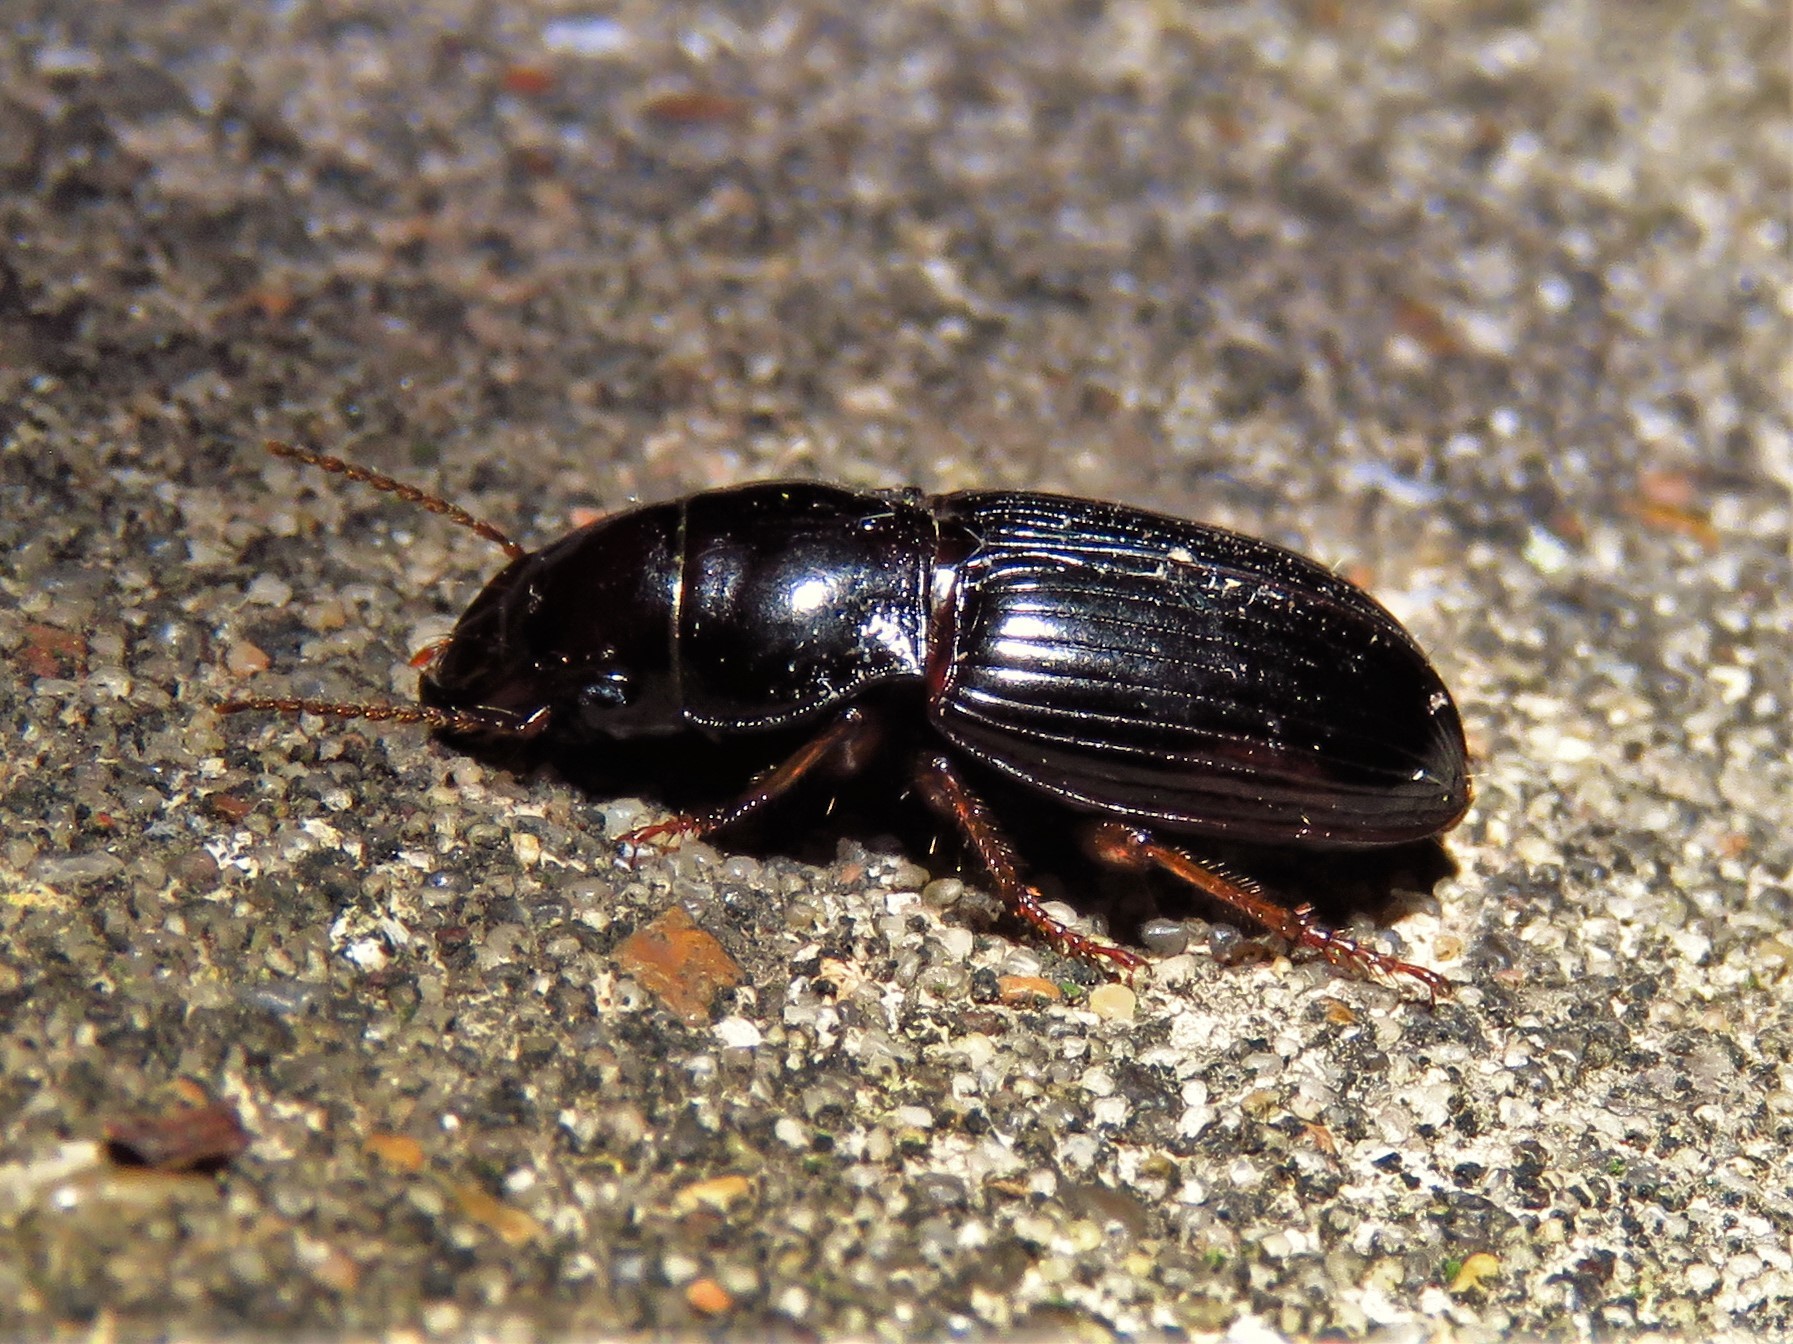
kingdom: Animalia
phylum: Arthropoda
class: Insecta
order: Coleoptera
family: Carabidae
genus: Cratacanthus
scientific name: Cratacanthus dubius
